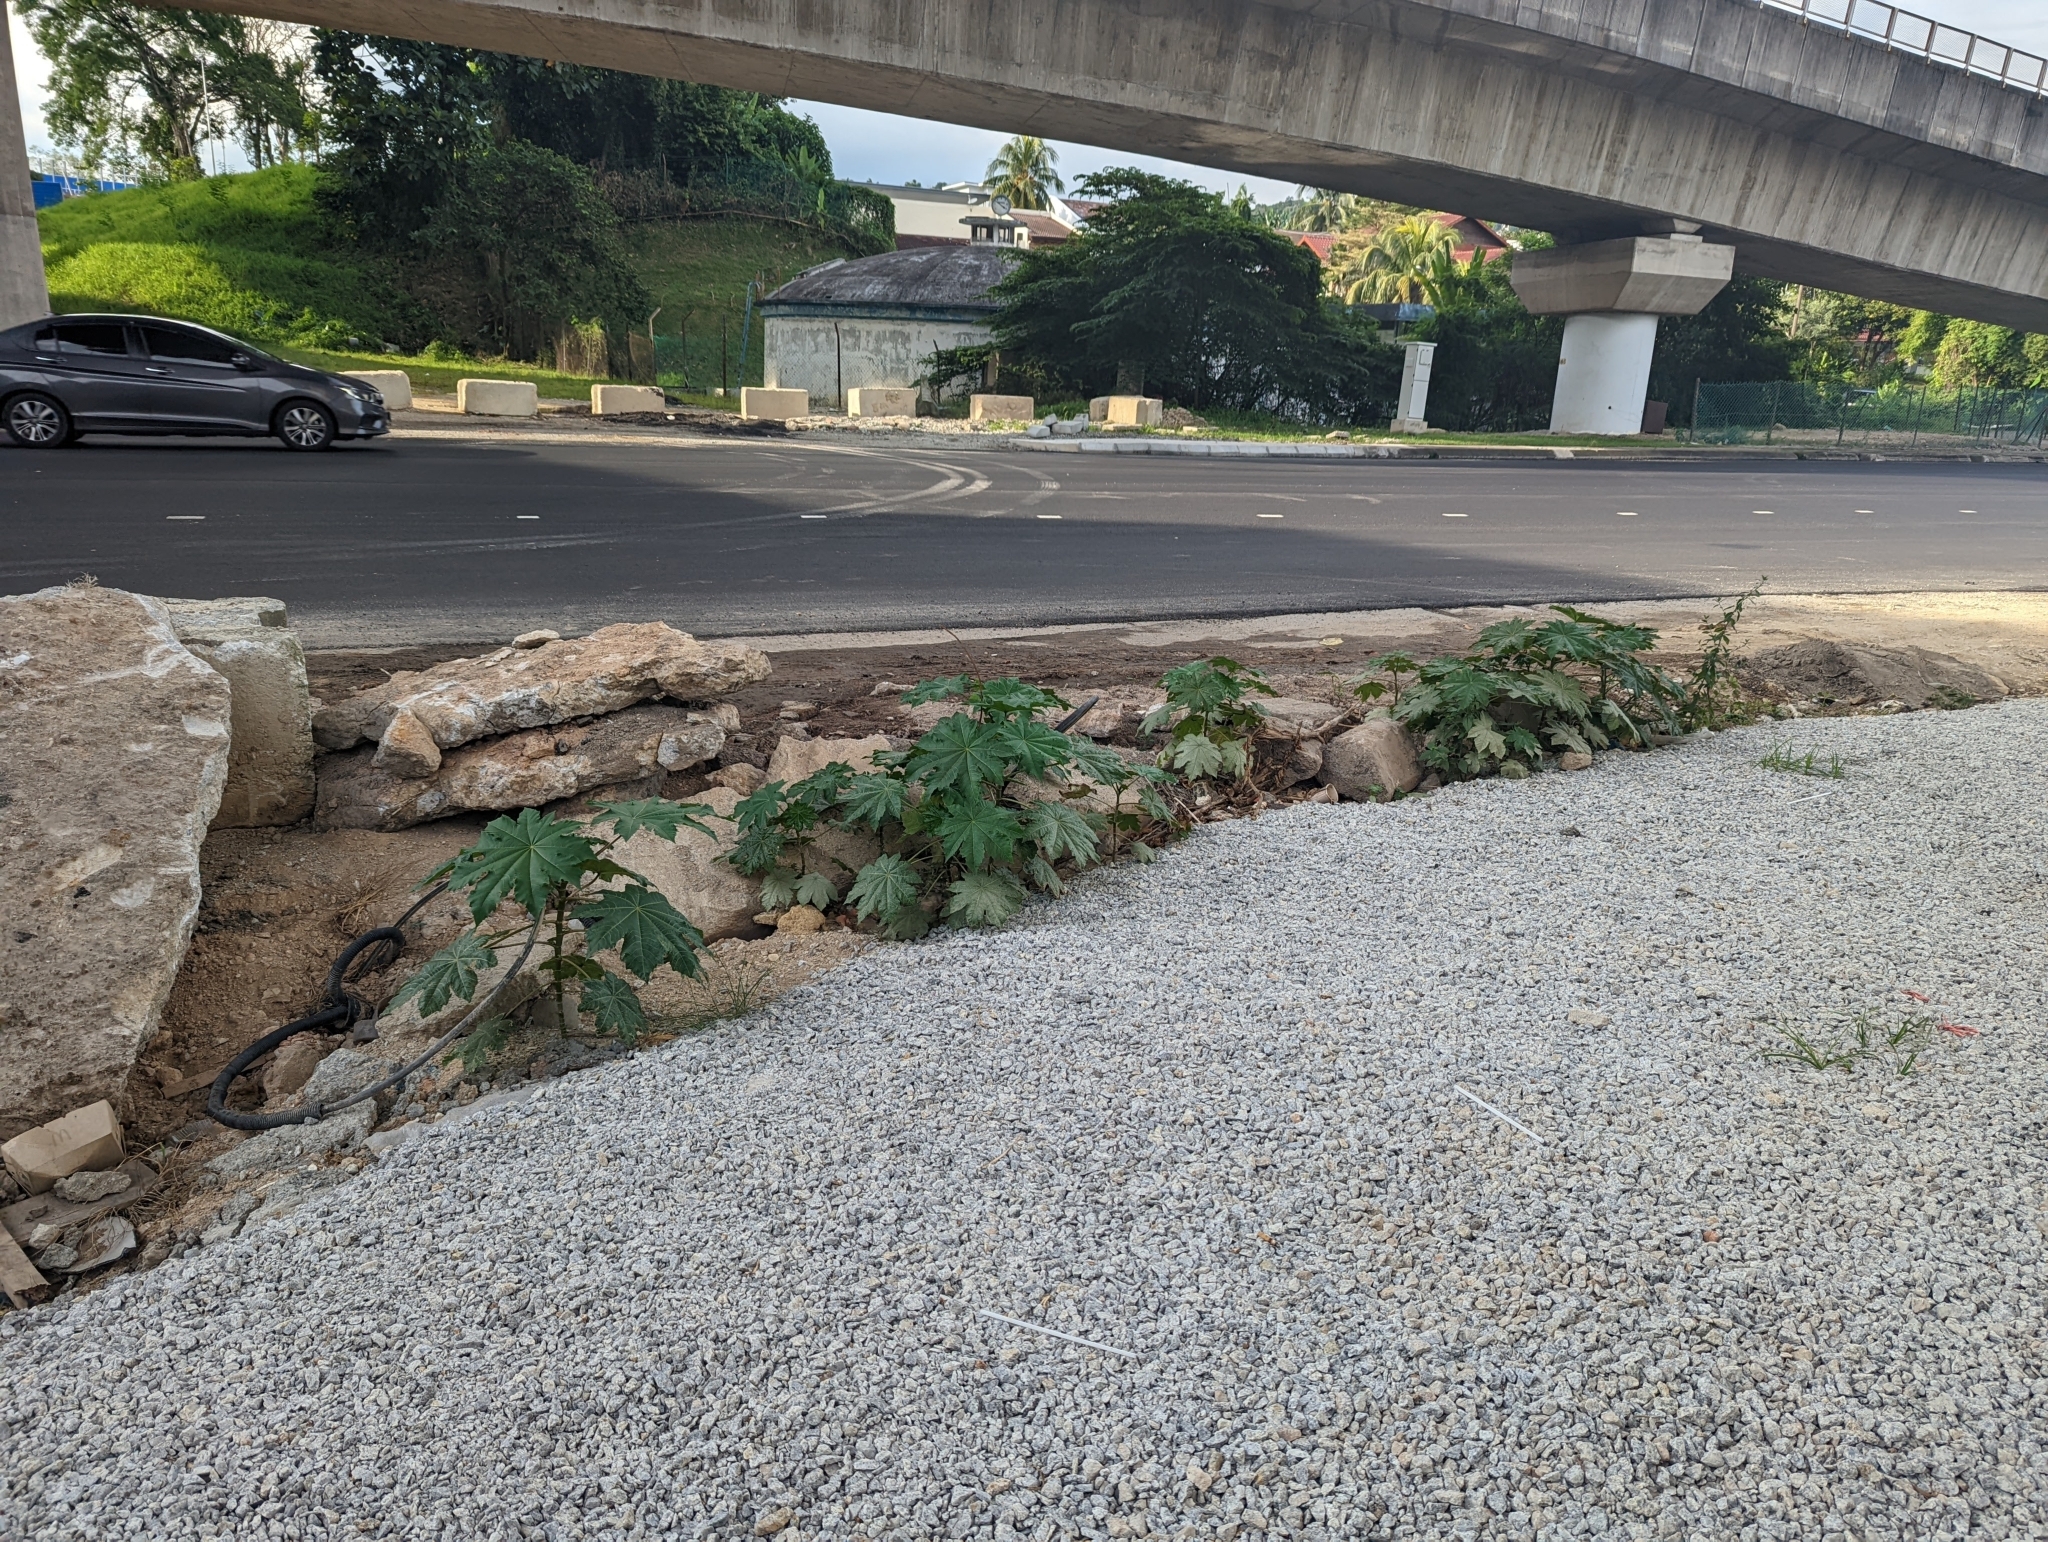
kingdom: Plantae
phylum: Tracheophyta
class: Magnoliopsida
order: Malpighiales
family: Euphorbiaceae
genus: Ricinus
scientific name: Ricinus communis
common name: Castor-oil-plant
